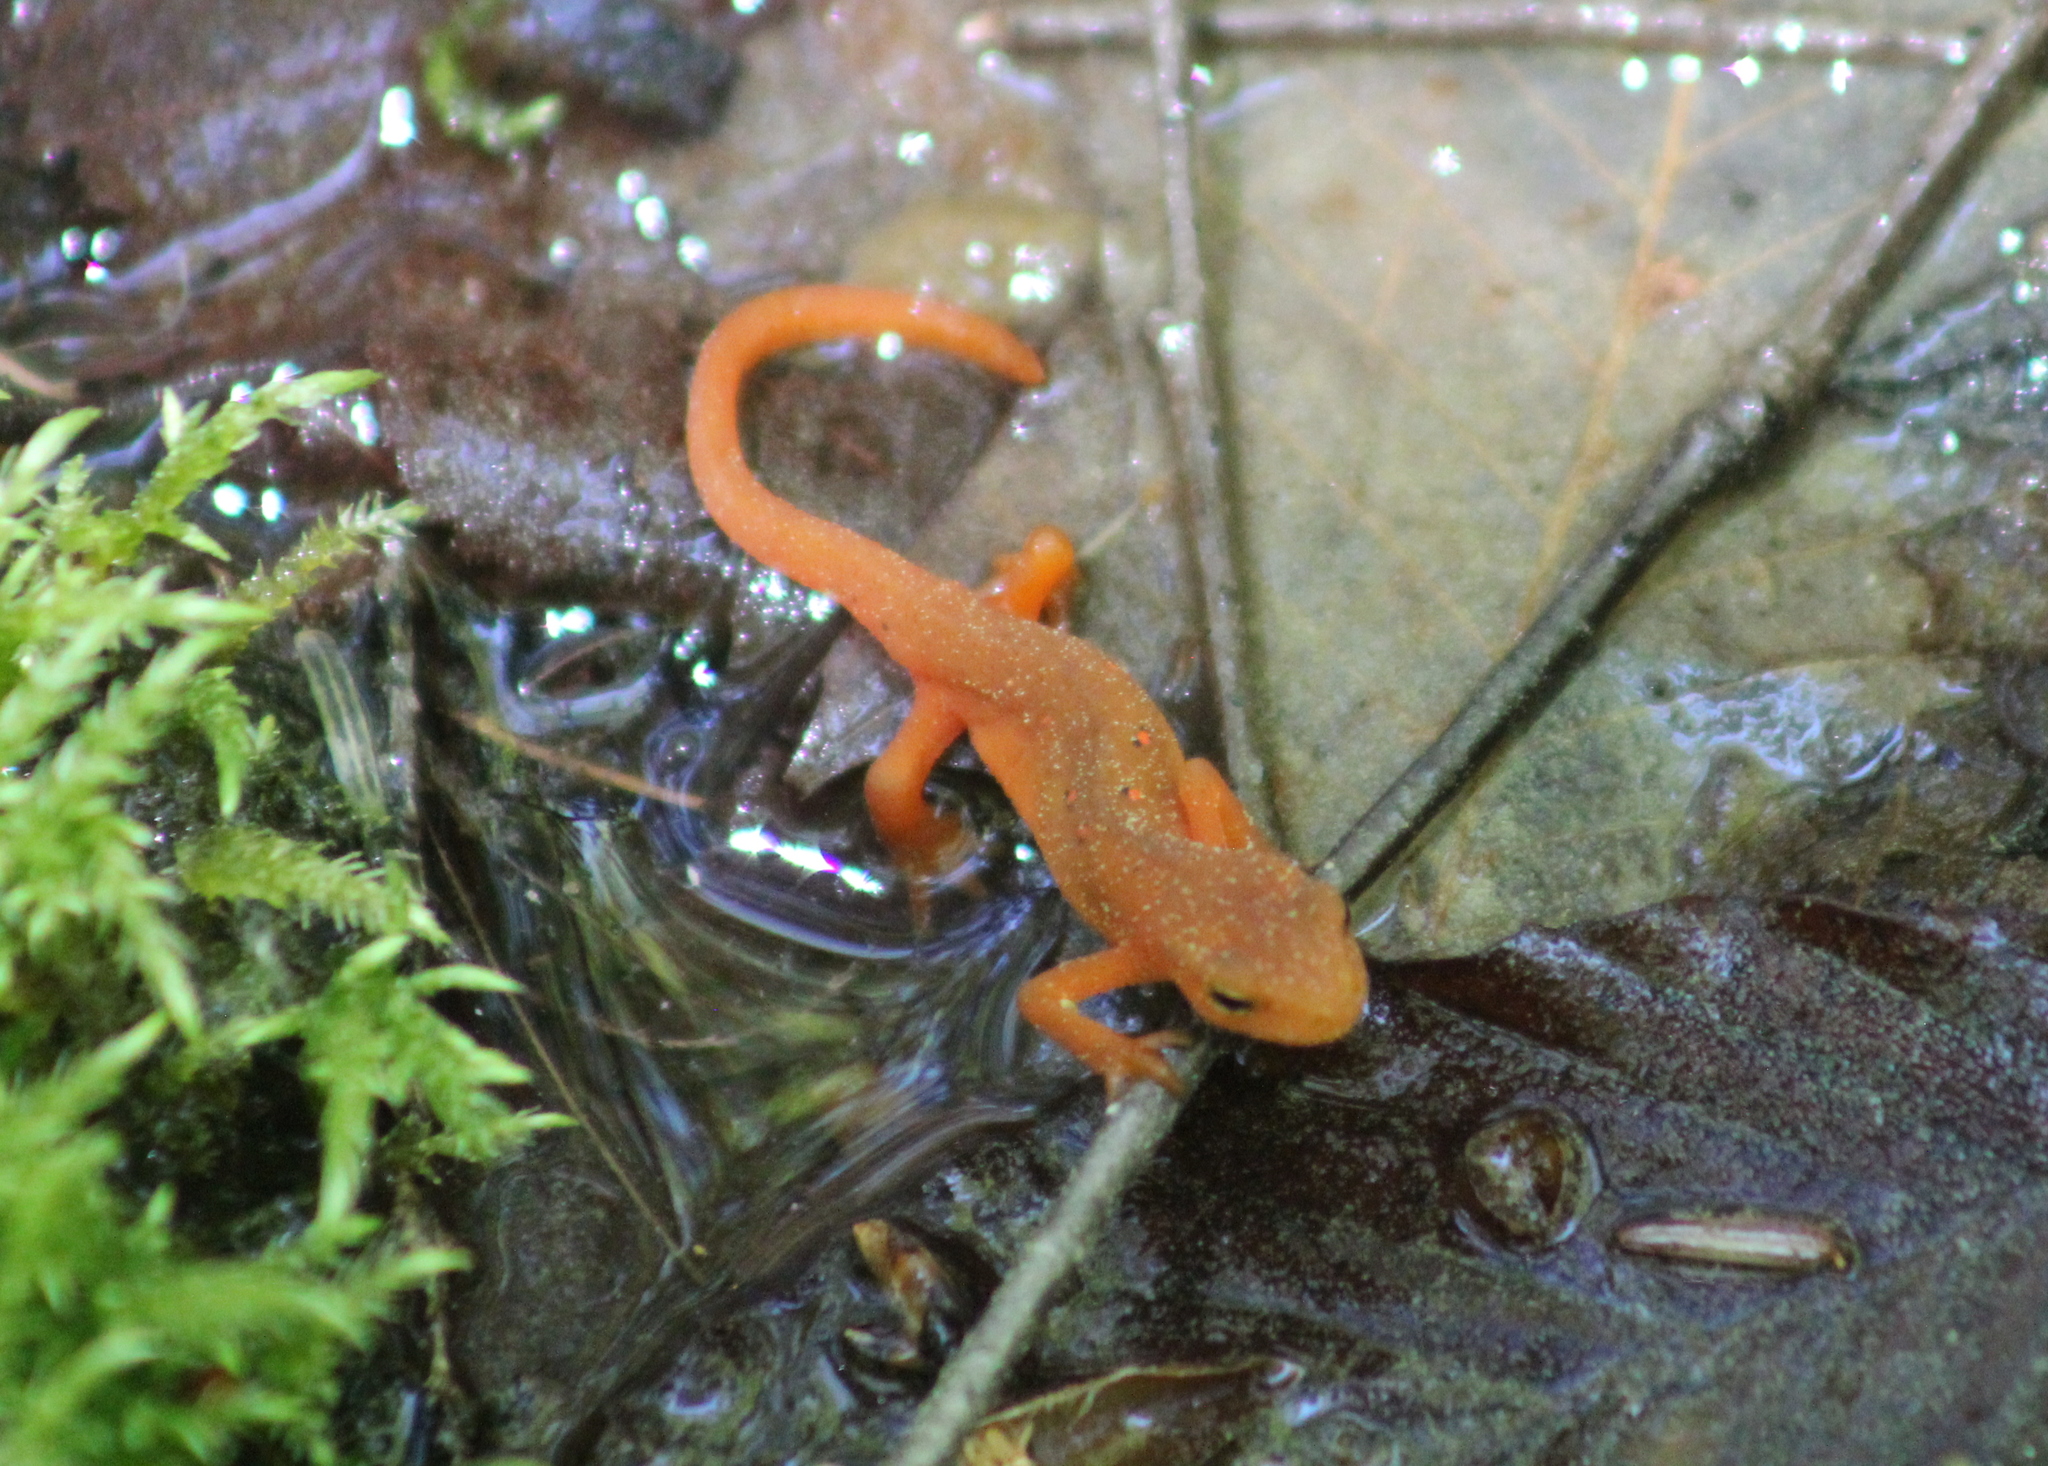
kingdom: Animalia
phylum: Chordata
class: Amphibia
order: Caudata
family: Salamandridae
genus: Notophthalmus
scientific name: Notophthalmus viridescens
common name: Eastern newt
